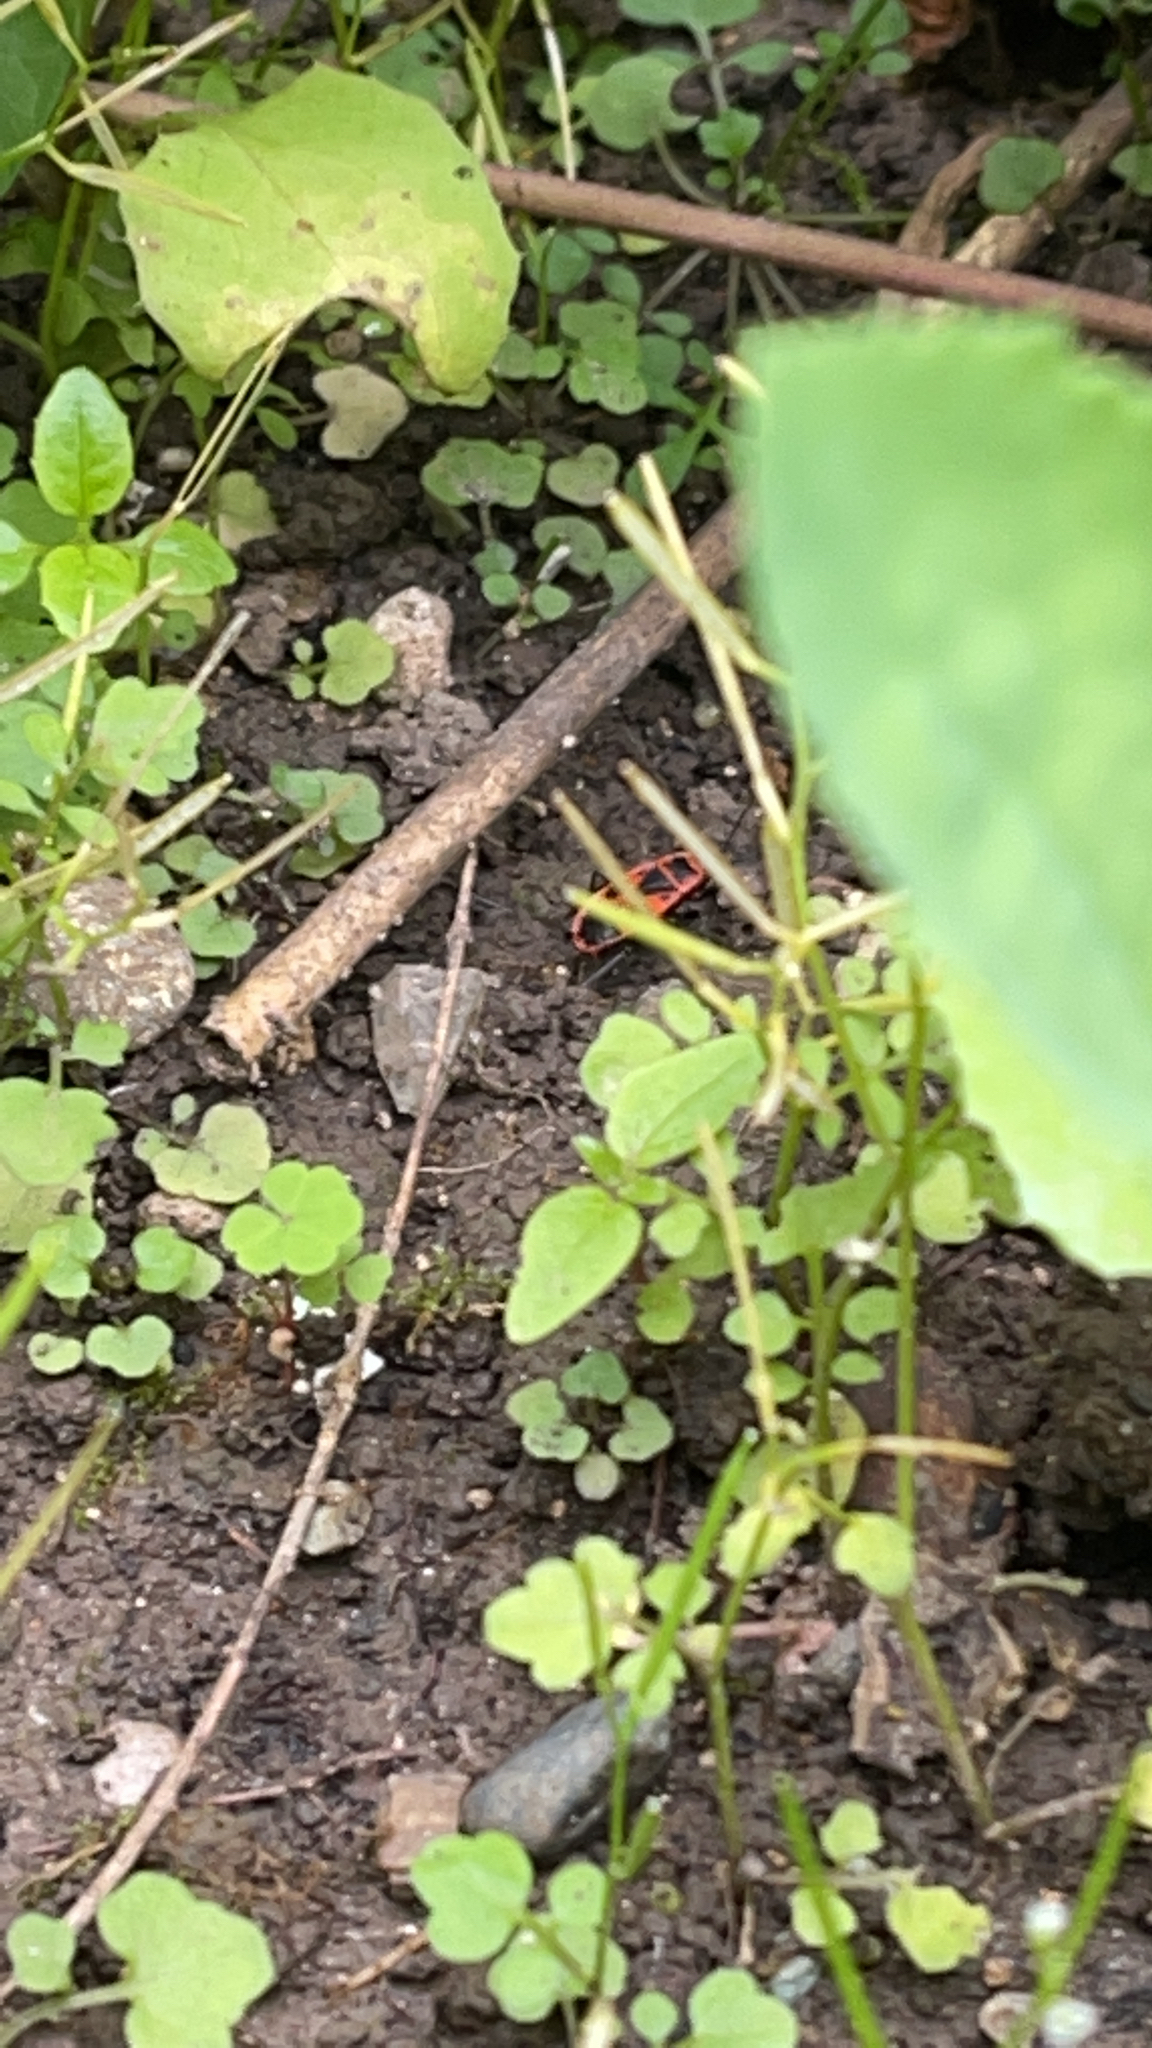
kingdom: Animalia
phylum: Arthropoda
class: Insecta
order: Hemiptera
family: Pyrrhocoridae
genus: Pyrrhocoris
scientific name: Pyrrhocoris apterus
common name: Firebug
